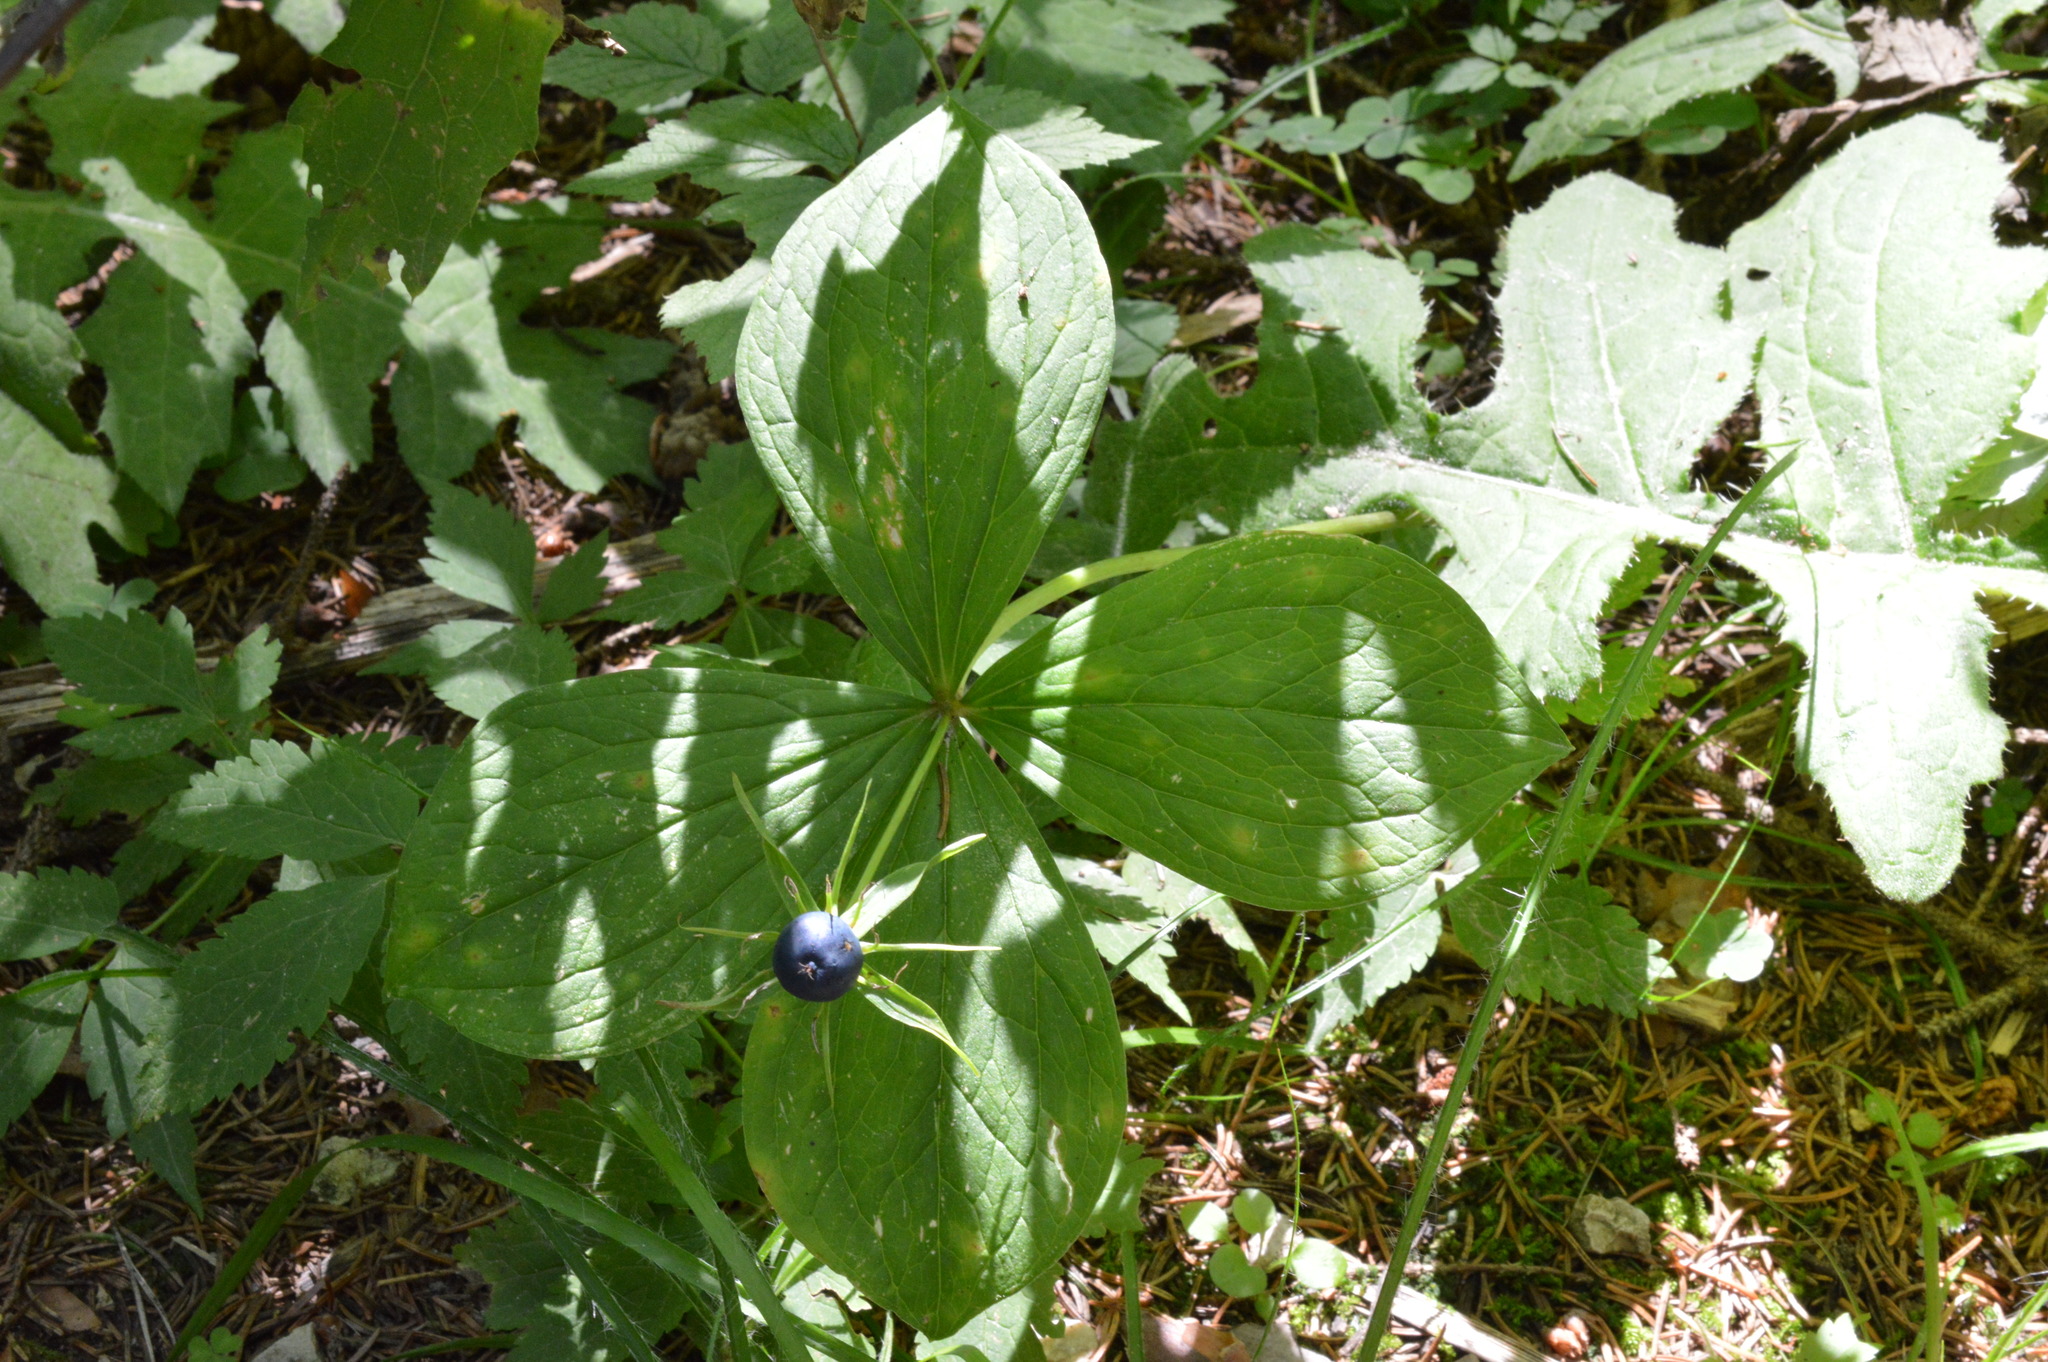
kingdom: Plantae
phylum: Tracheophyta
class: Liliopsida
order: Liliales
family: Melanthiaceae
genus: Paris
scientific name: Paris quadrifolia
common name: Herb-paris
